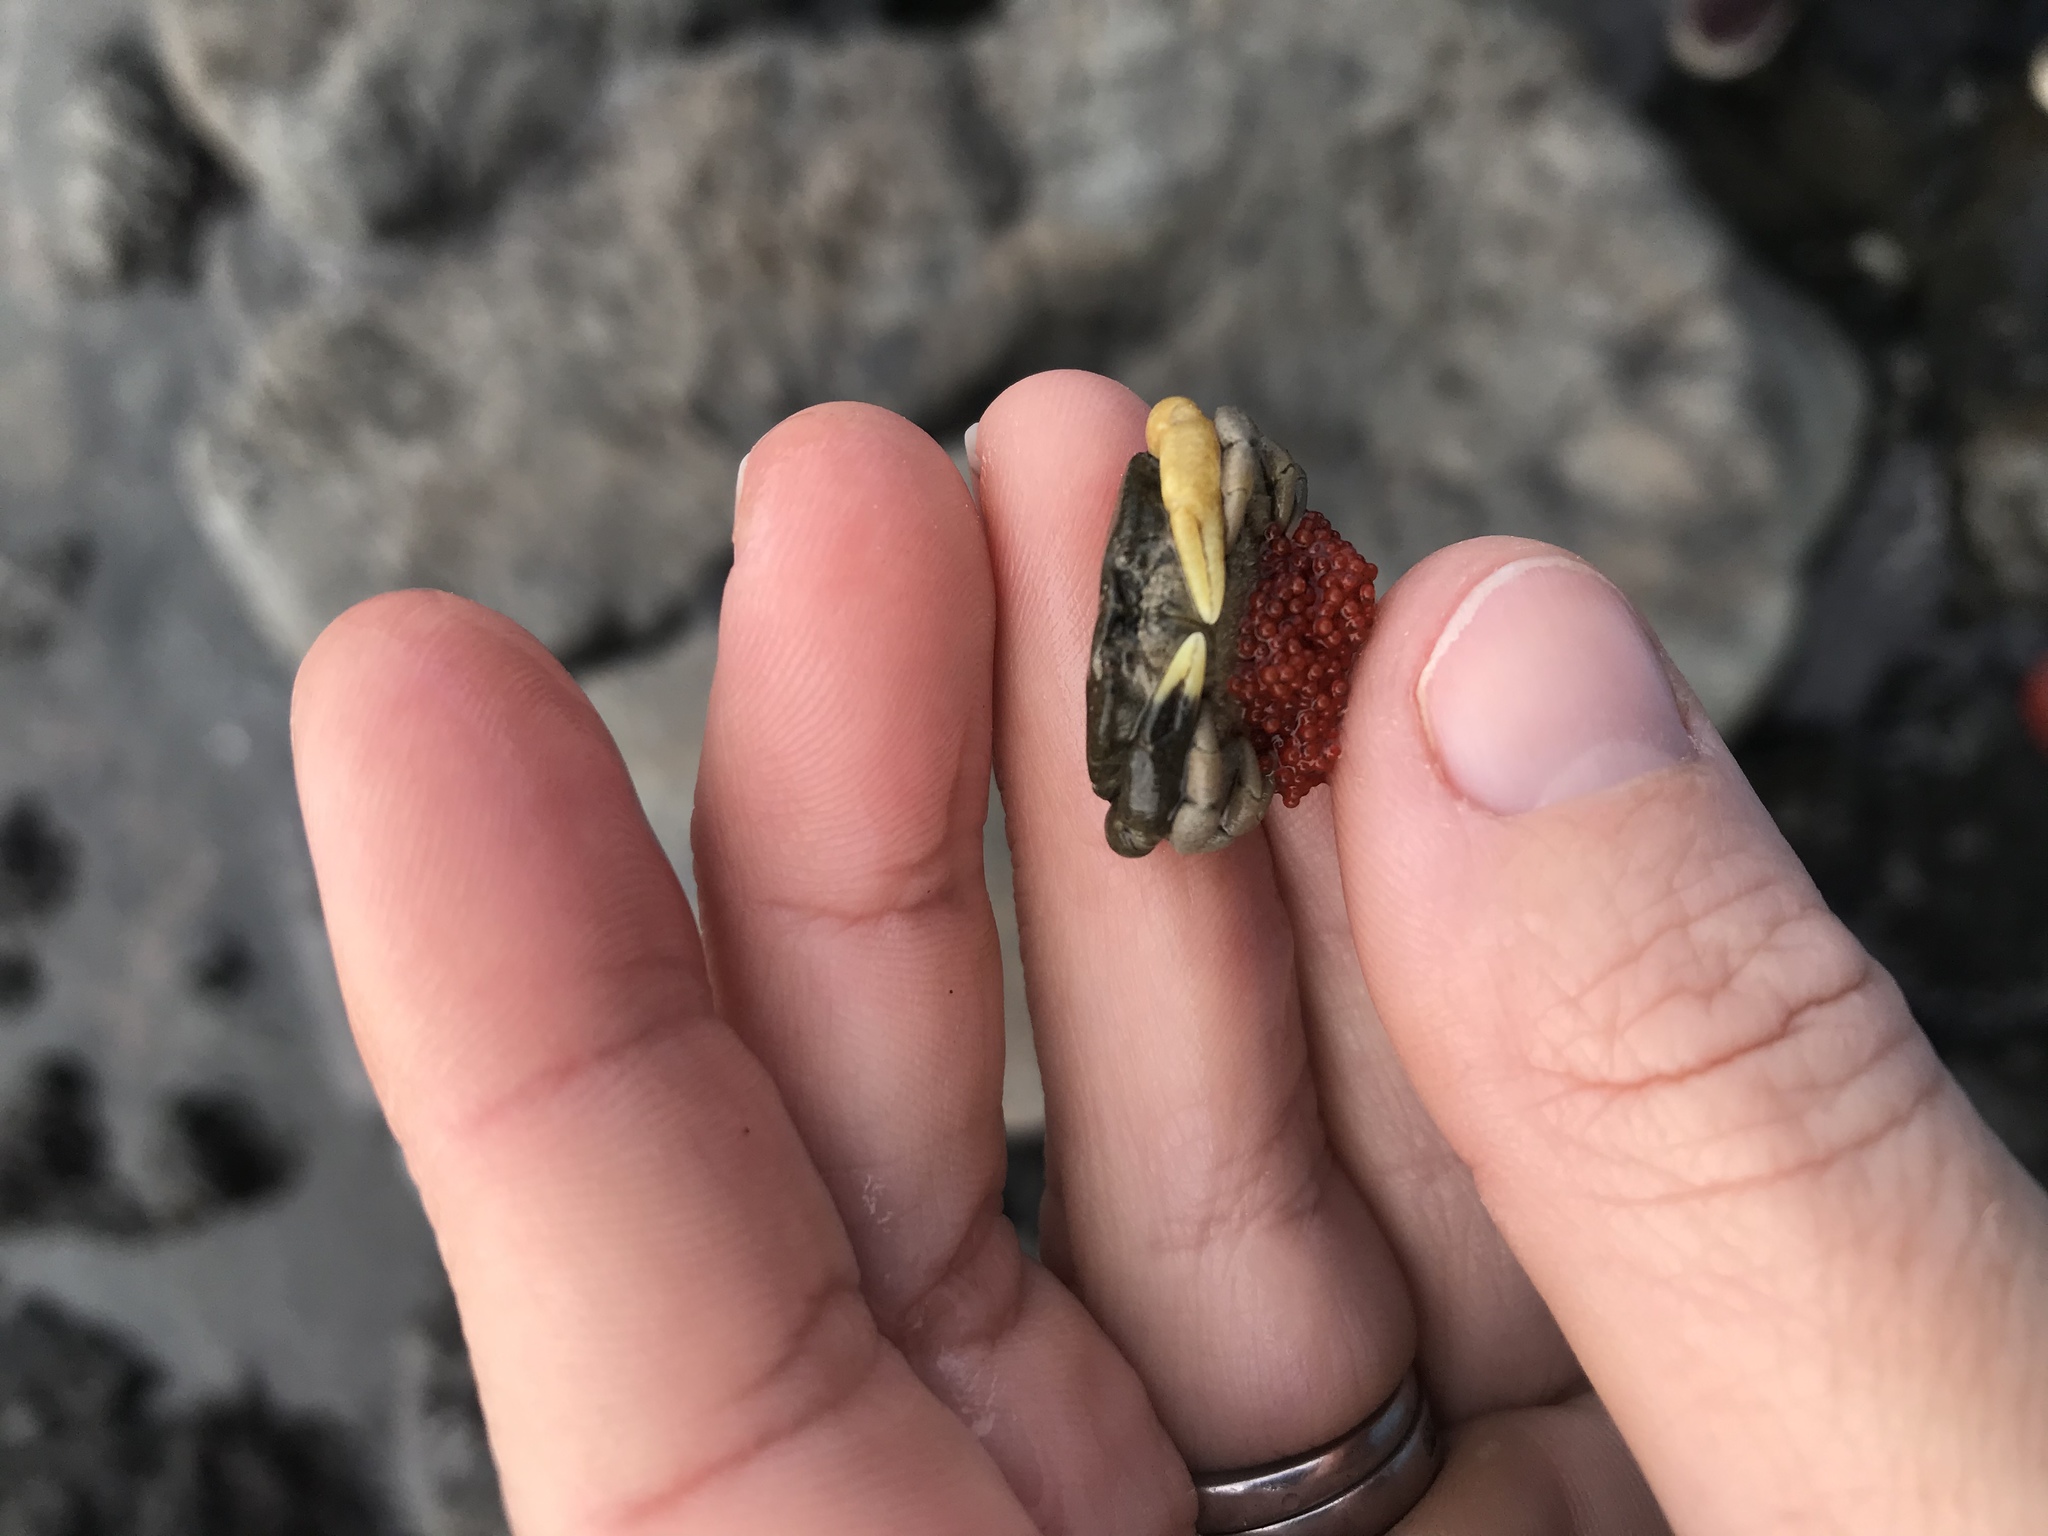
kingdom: Animalia
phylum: Arthropoda
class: Malacostraca
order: Decapoda
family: Heteroziidae
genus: Heterozius
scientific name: Heterozius rotundifrons
